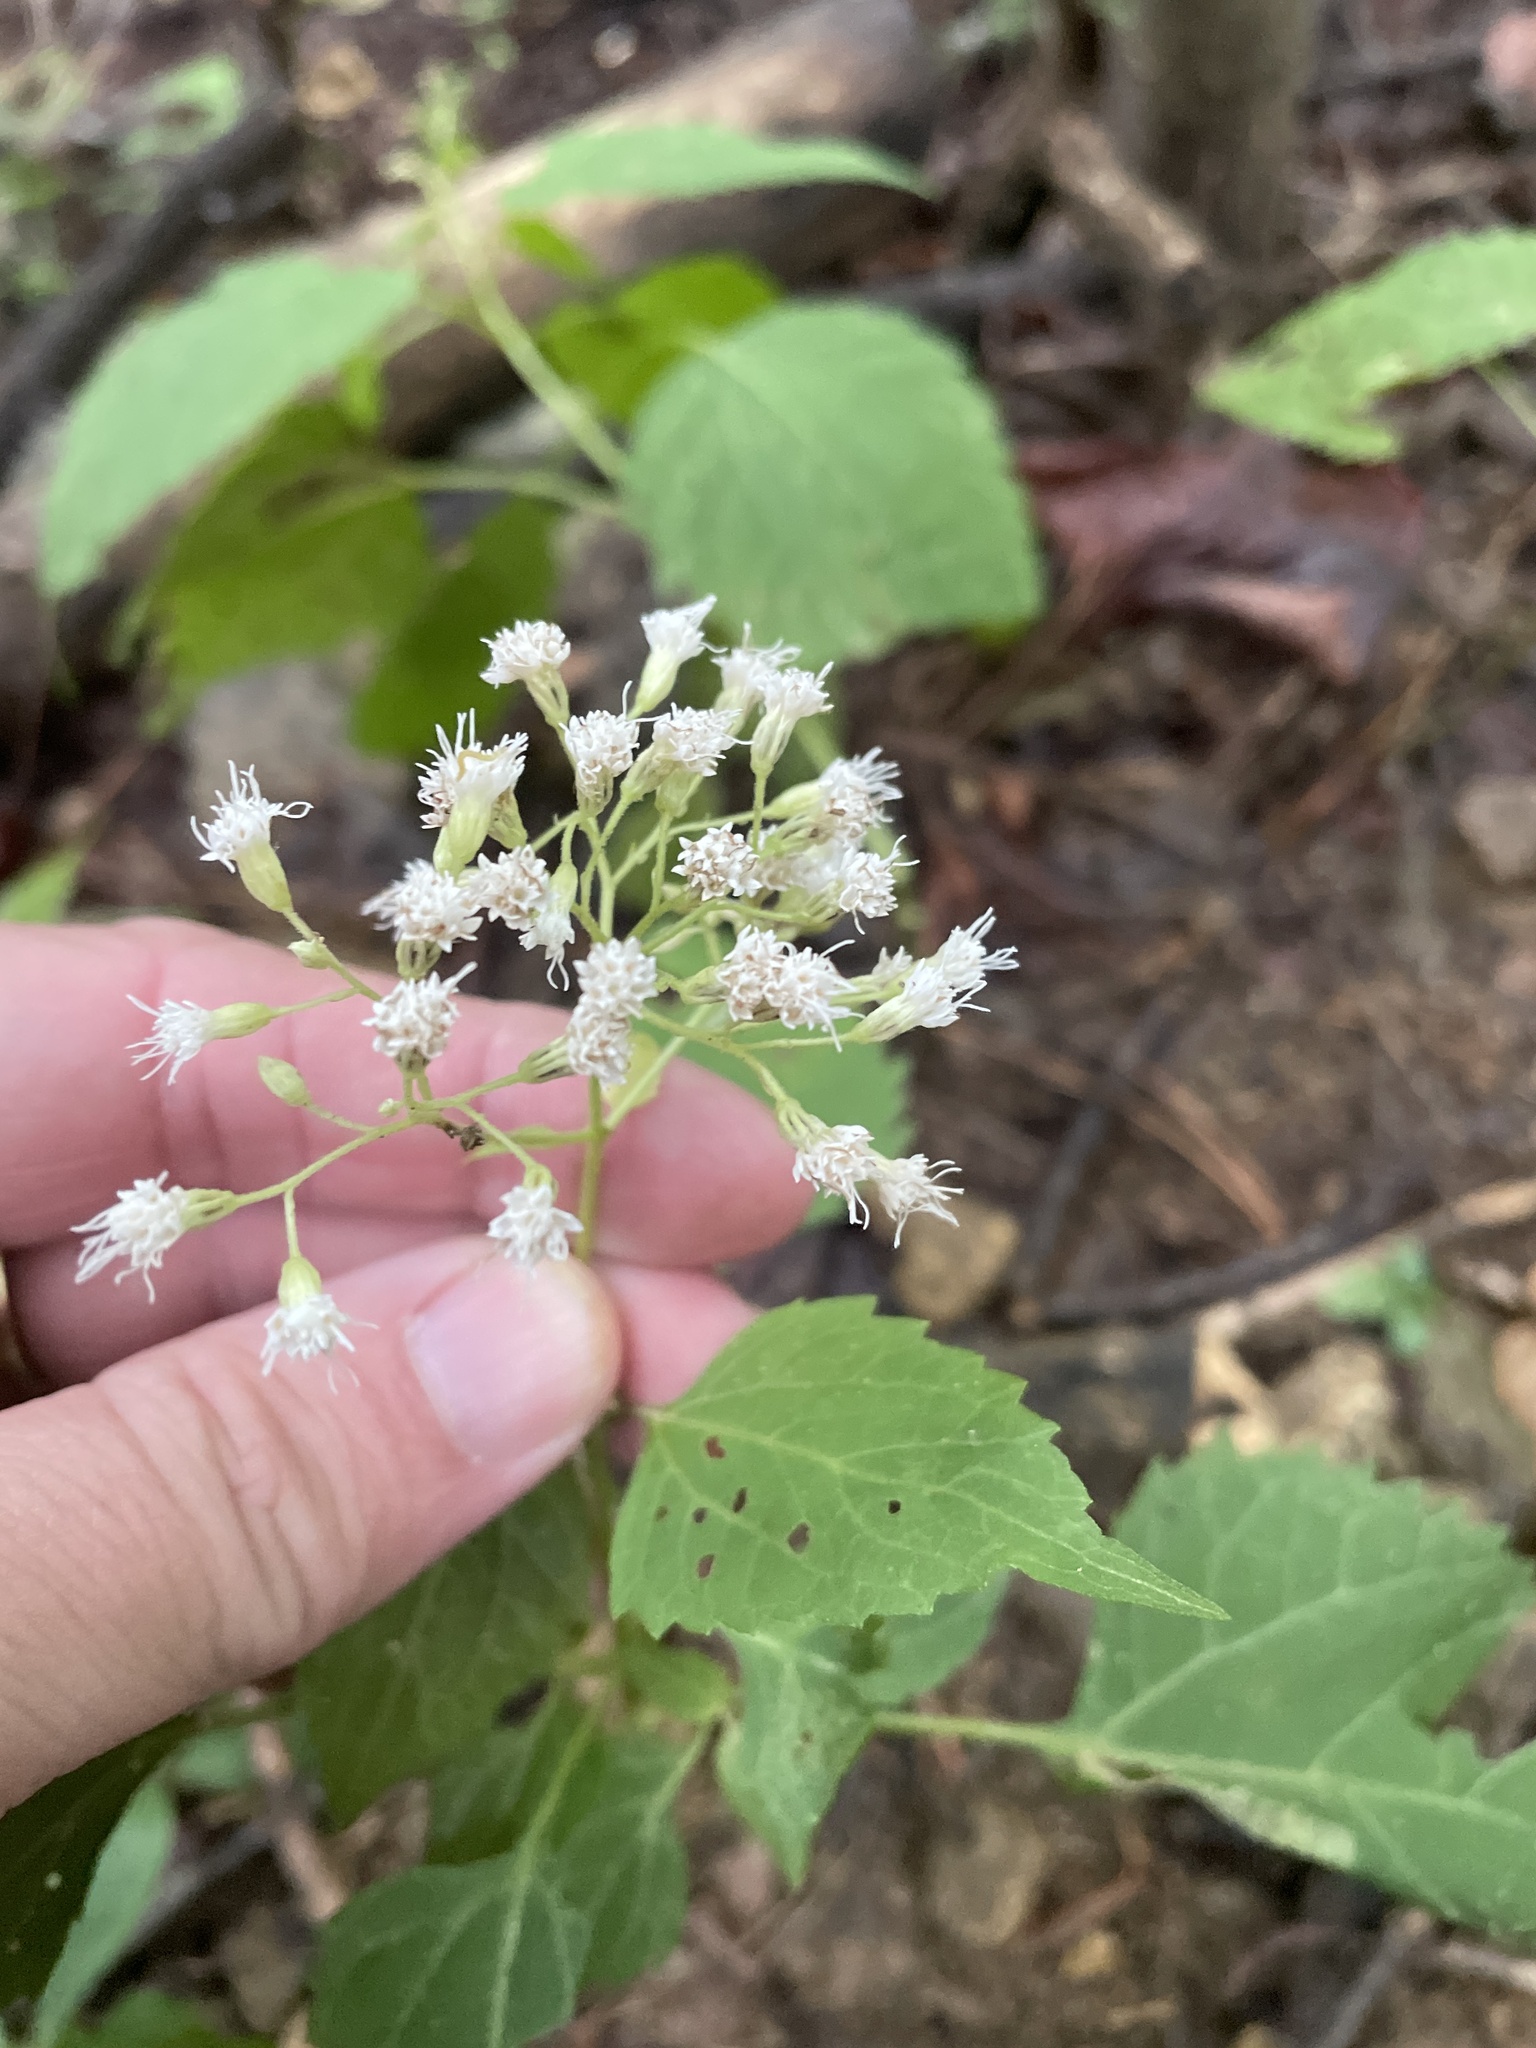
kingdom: Plantae
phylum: Tracheophyta
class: Magnoliopsida
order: Asterales
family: Asteraceae
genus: Ageratina
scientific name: Ageratina altissima
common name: White snakeroot
